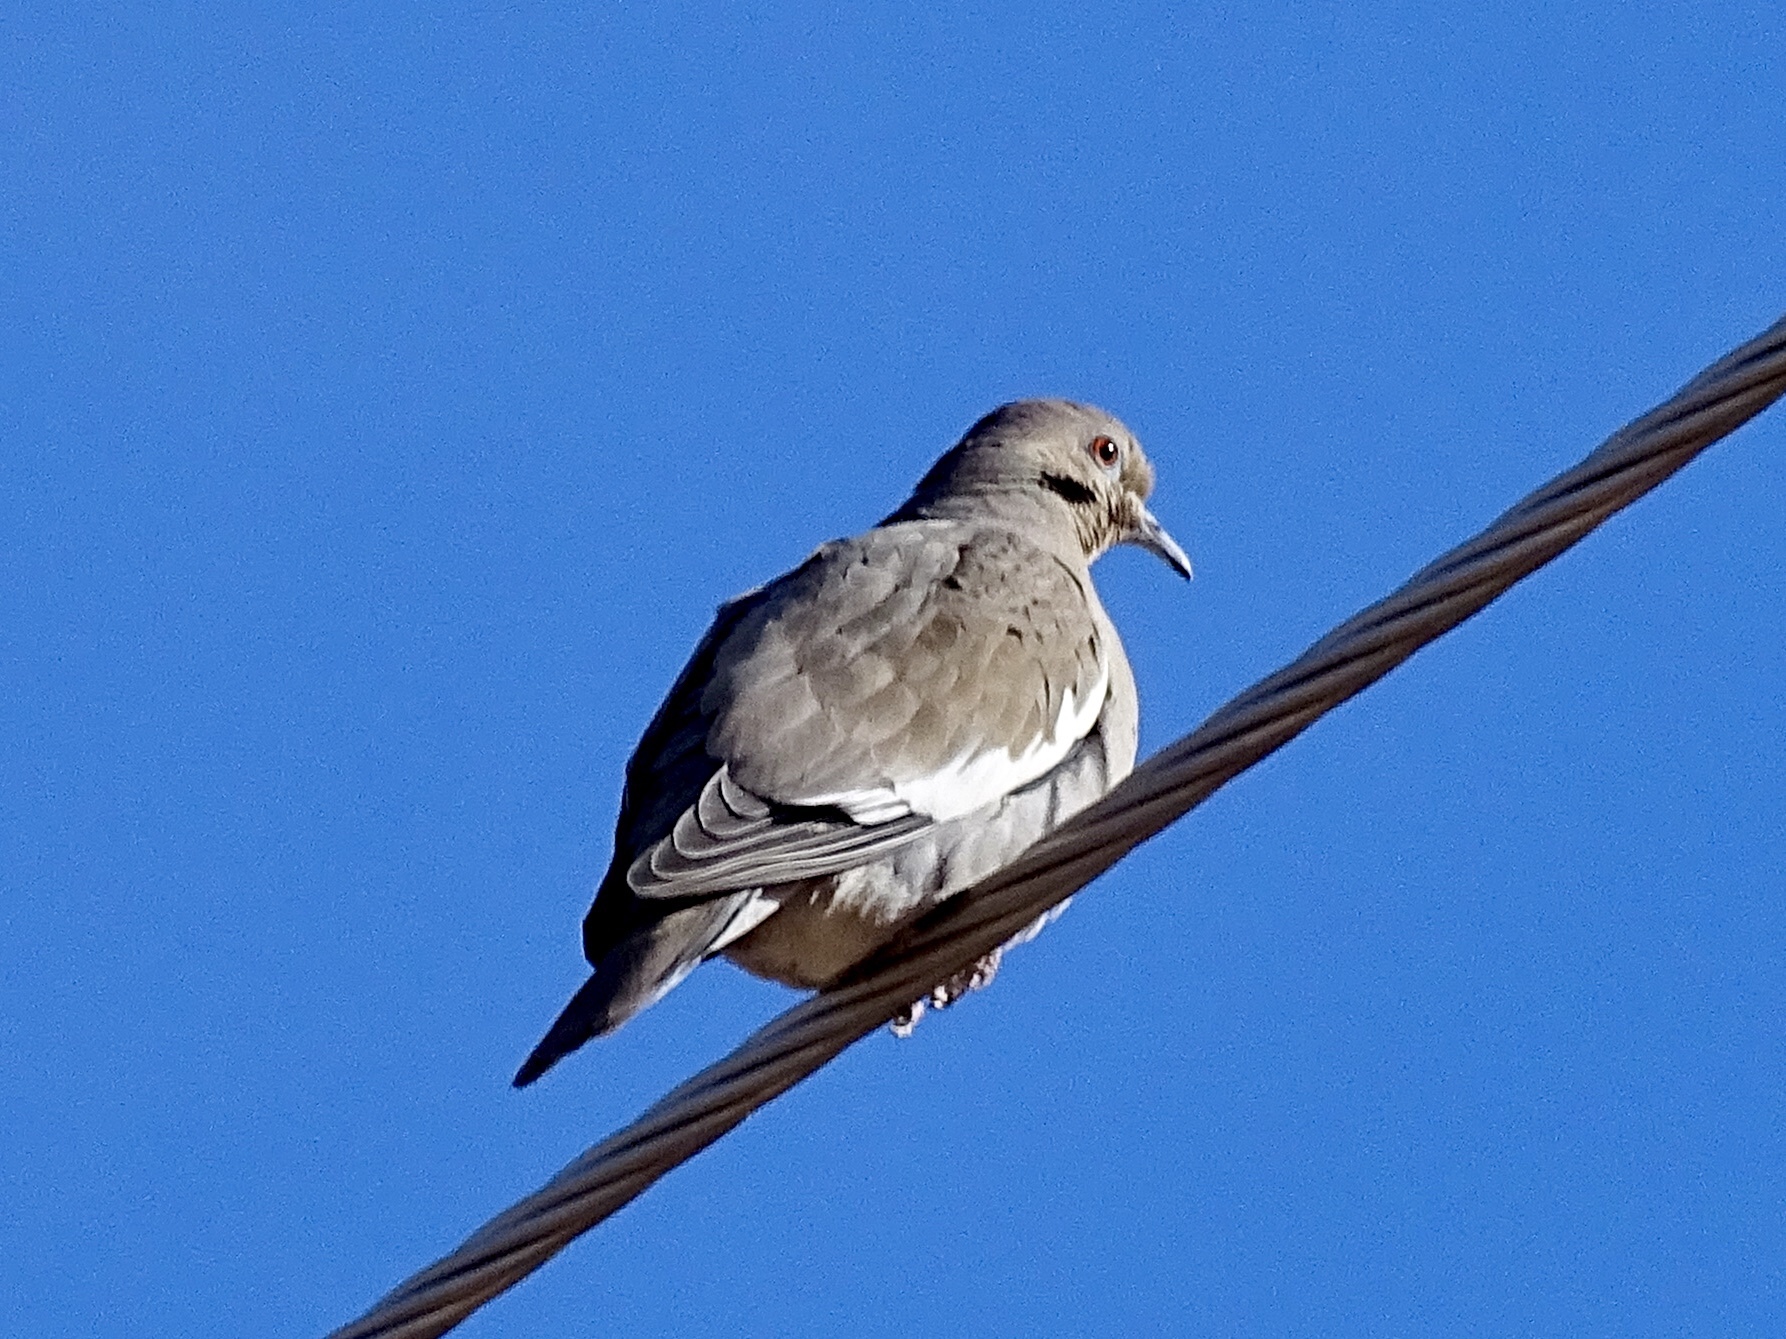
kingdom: Animalia
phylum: Chordata
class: Aves
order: Columbiformes
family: Columbidae
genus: Zenaida
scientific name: Zenaida asiatica
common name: White-winged dove
